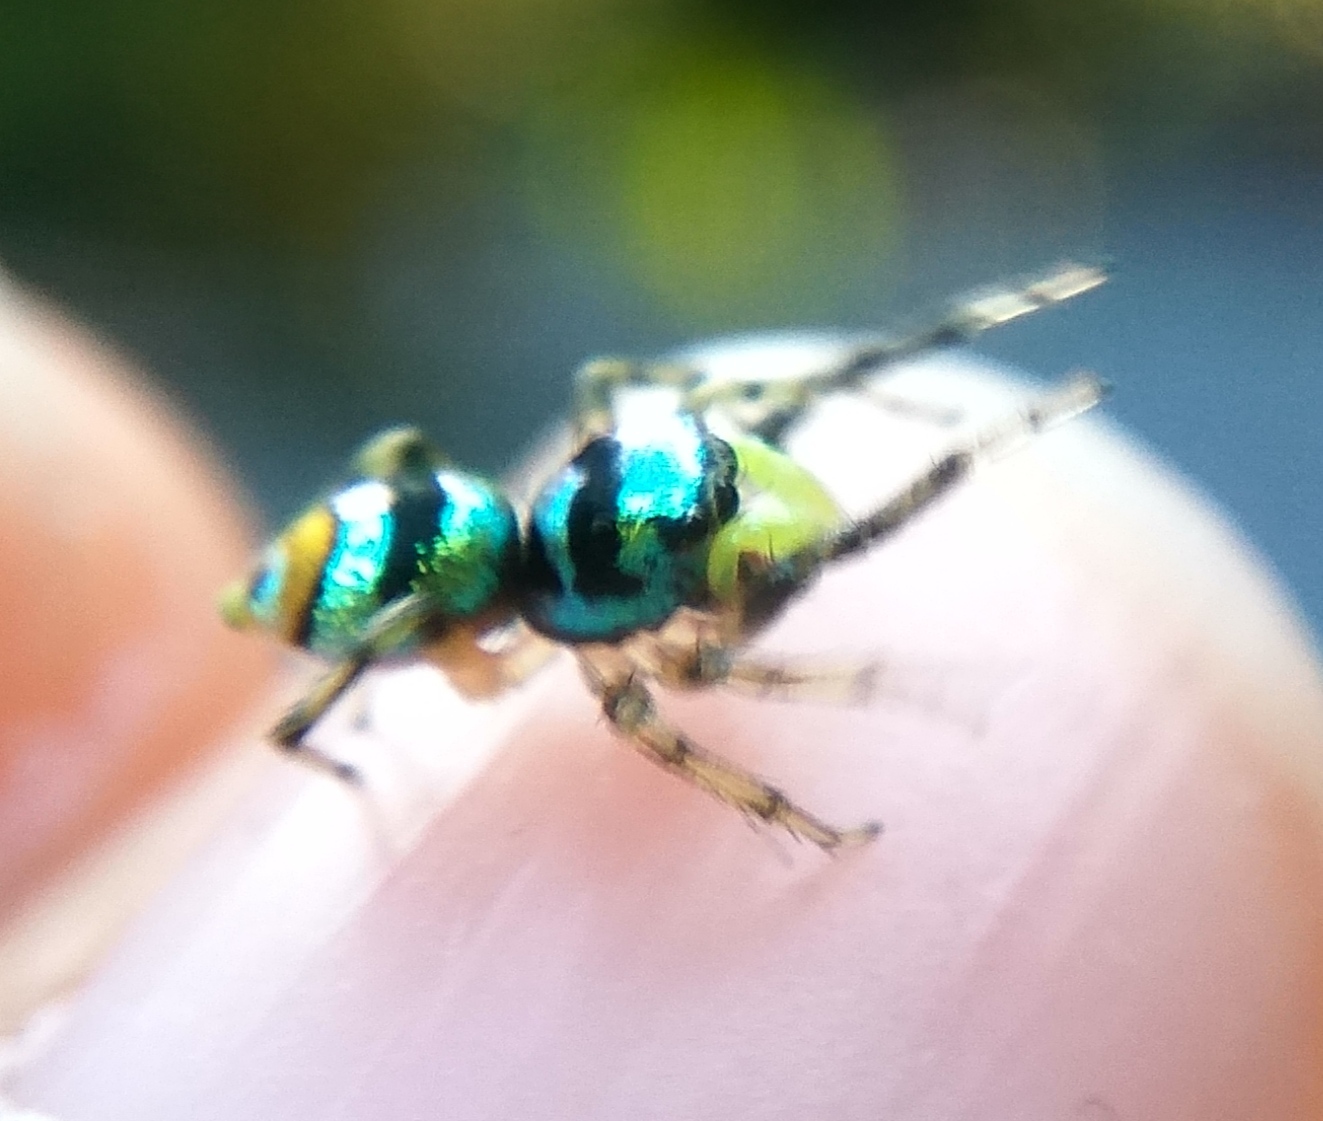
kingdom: Animalia
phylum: Arthropoda
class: Arachnida
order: Araneae
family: Salticidae
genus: Phintella
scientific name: Phintella vittata
